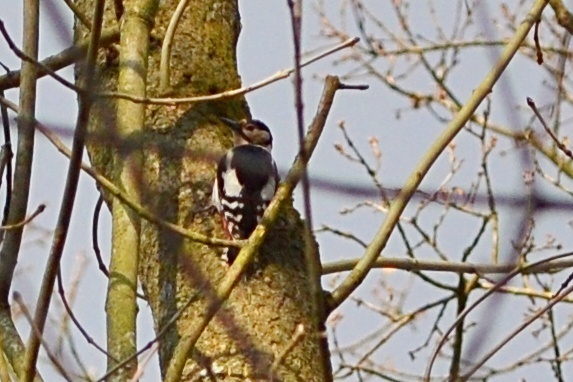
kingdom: Animalia
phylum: Chordata
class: Aves
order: Piciformes
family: Picidae
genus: Dendrocopos
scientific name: Dendrocopos major
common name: Great spotted woodpecker
